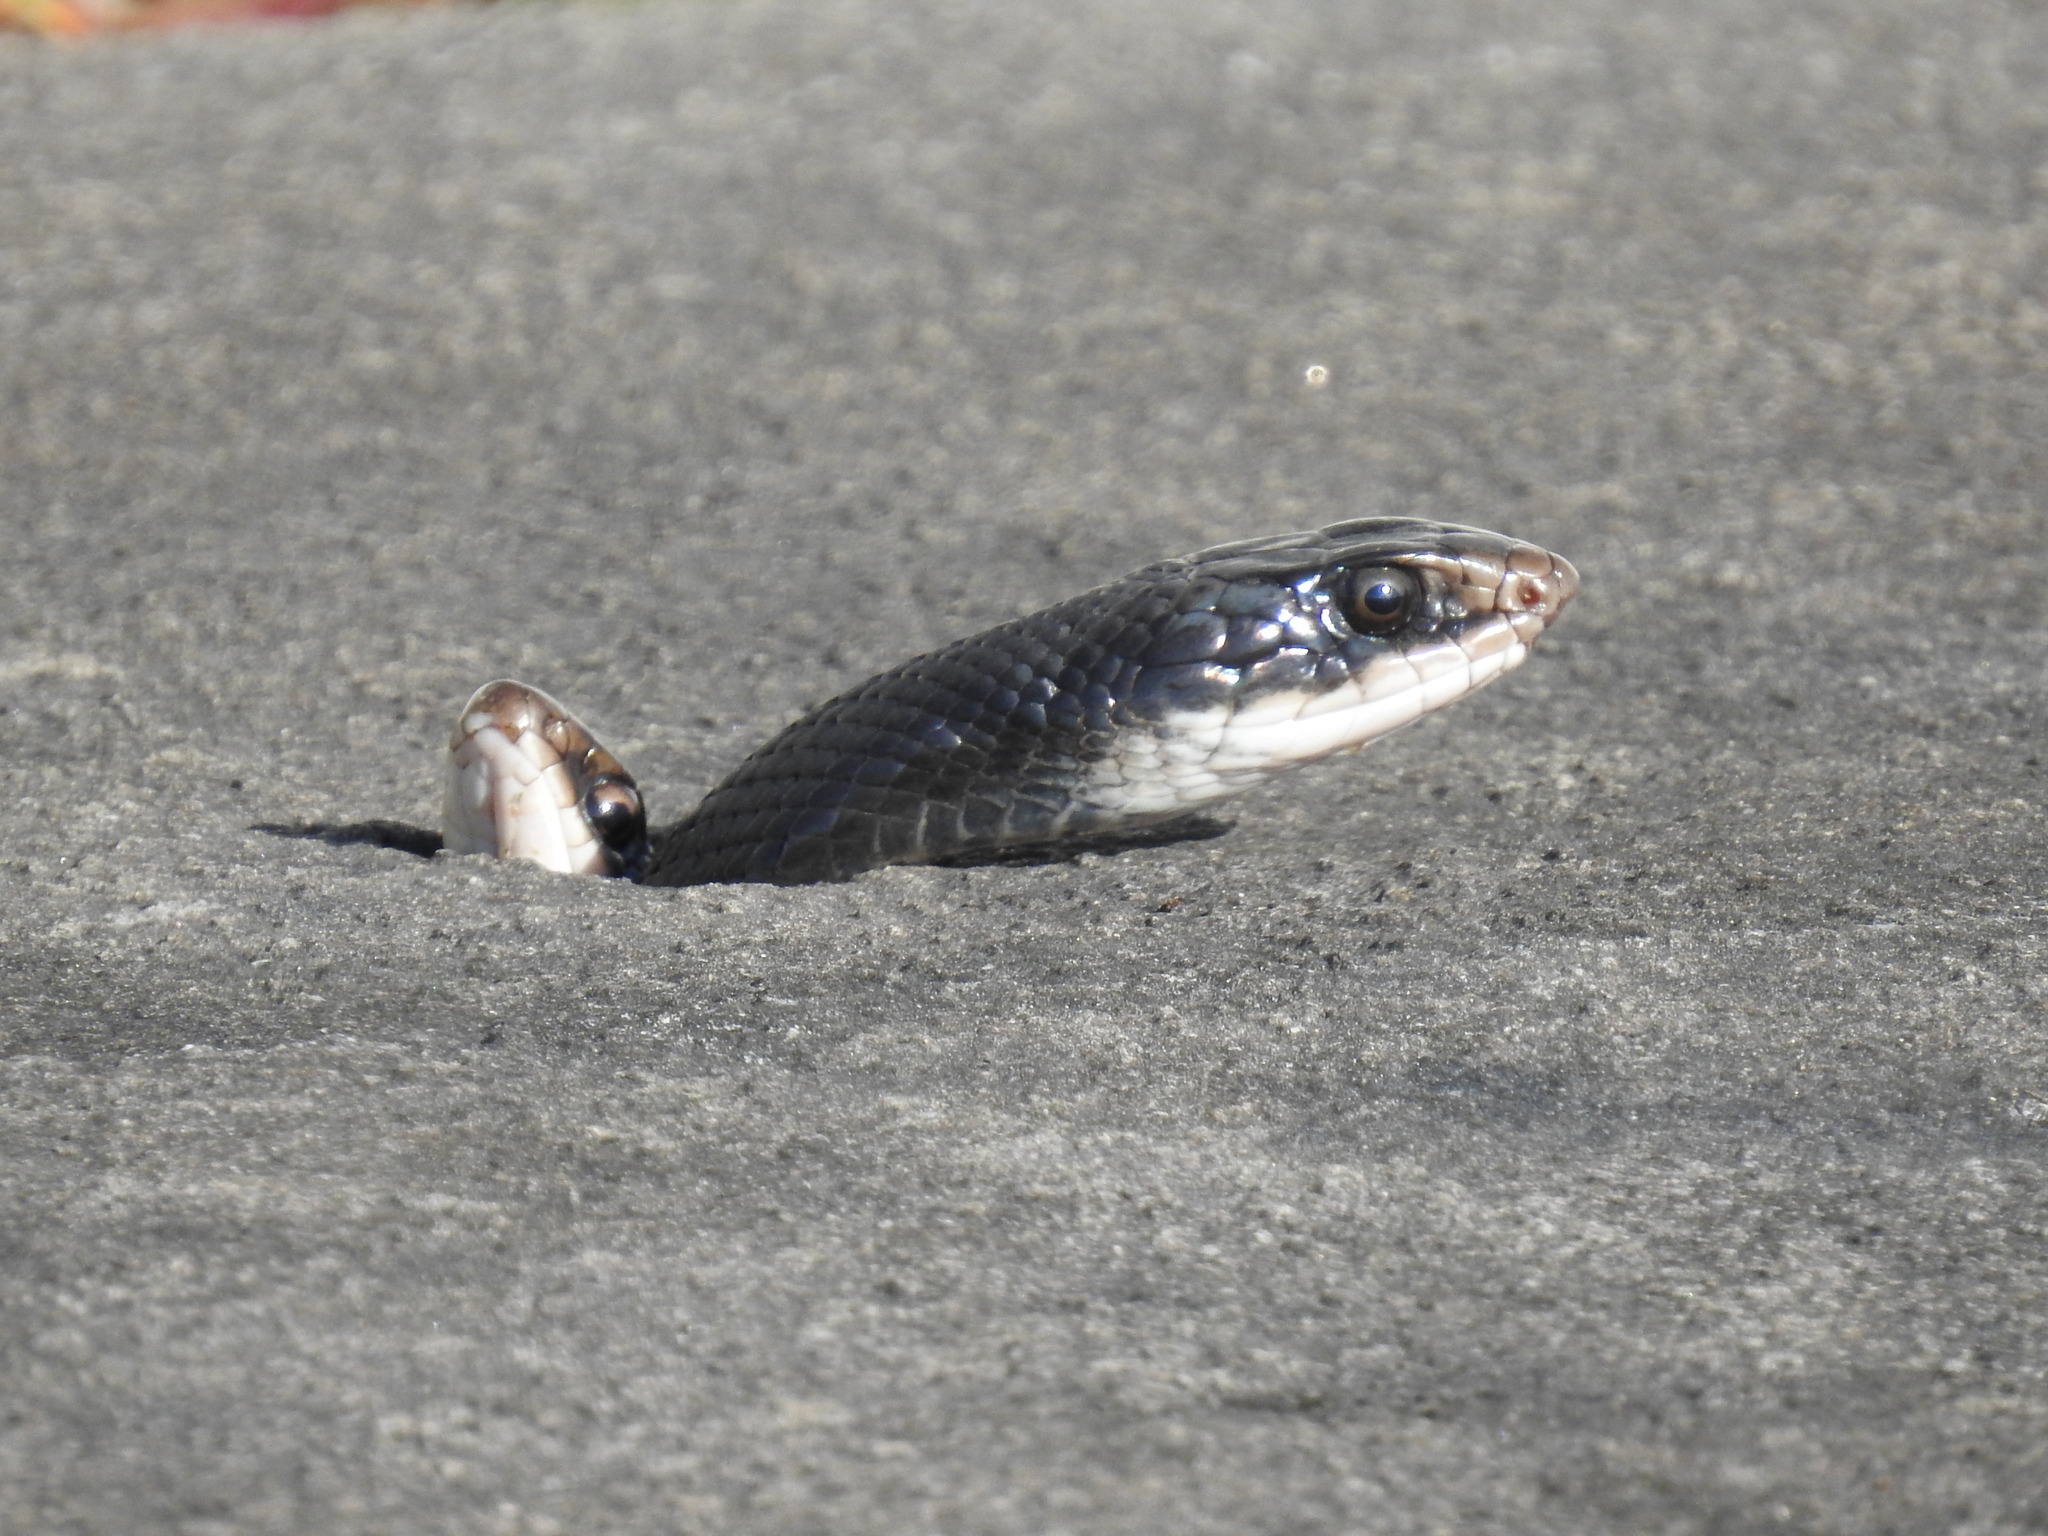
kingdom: Animalia
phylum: Chordata
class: Squamata
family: Colubridae
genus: Coluber
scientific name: Coluber constrictor
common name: Eastern racer
